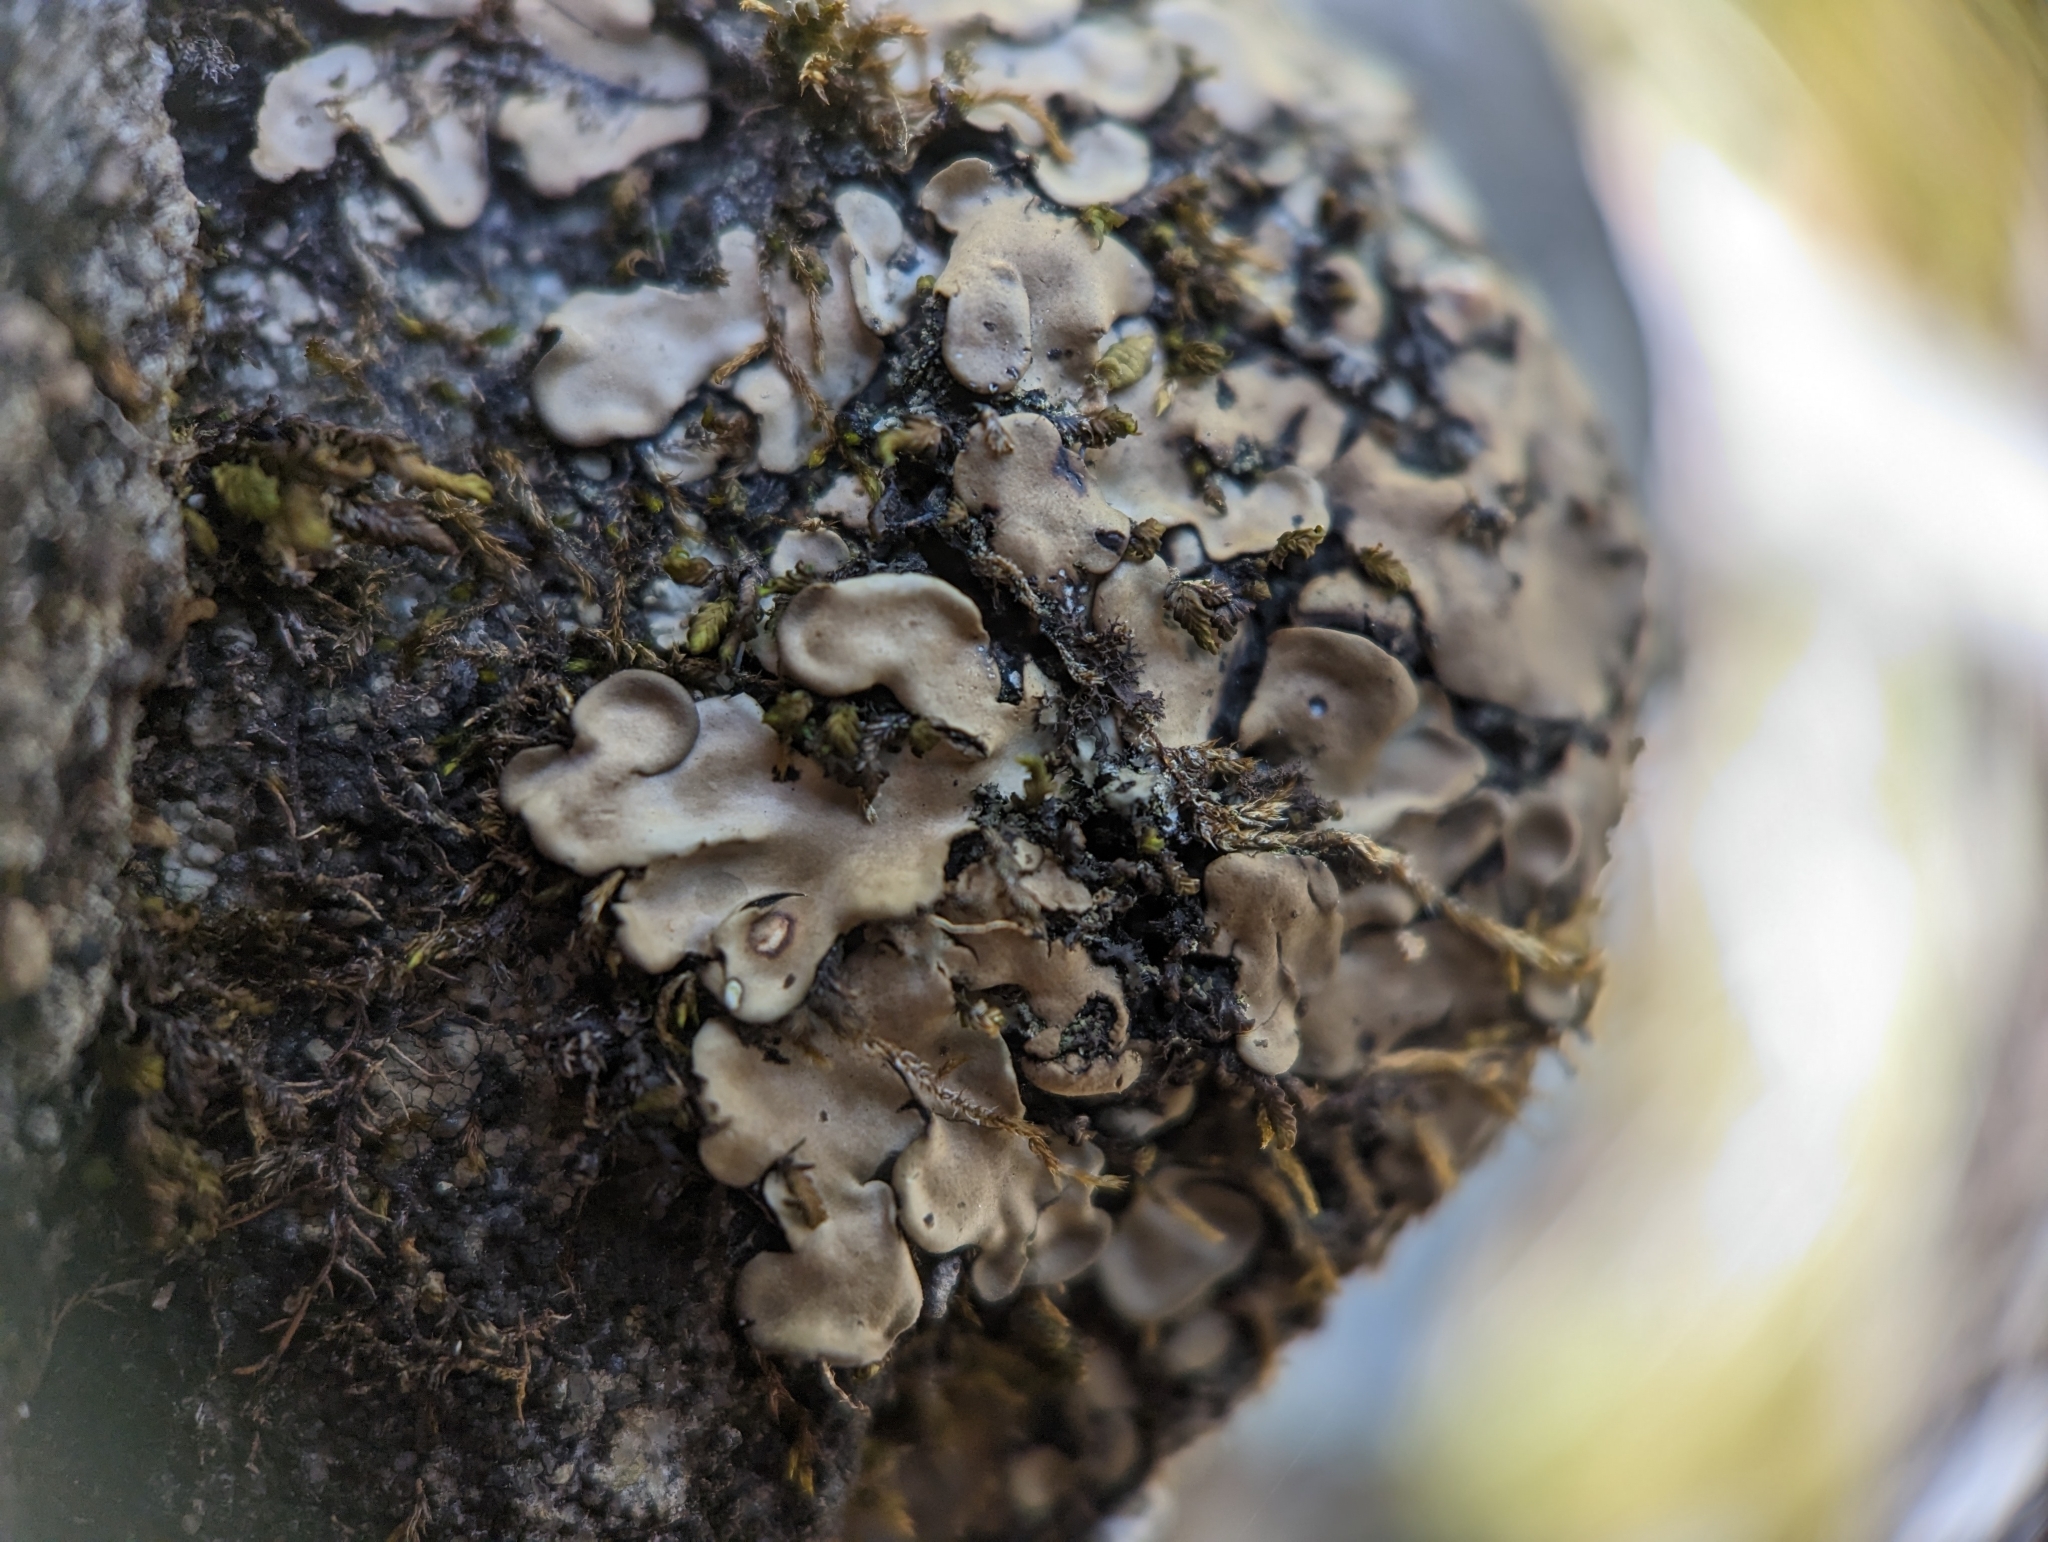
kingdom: Fungi
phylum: Ascomycota
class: Eurotiomycetes
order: Verrucariales
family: Verrucariaceae
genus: Placidium
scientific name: Placidium arboreum
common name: Tree stipplescale
